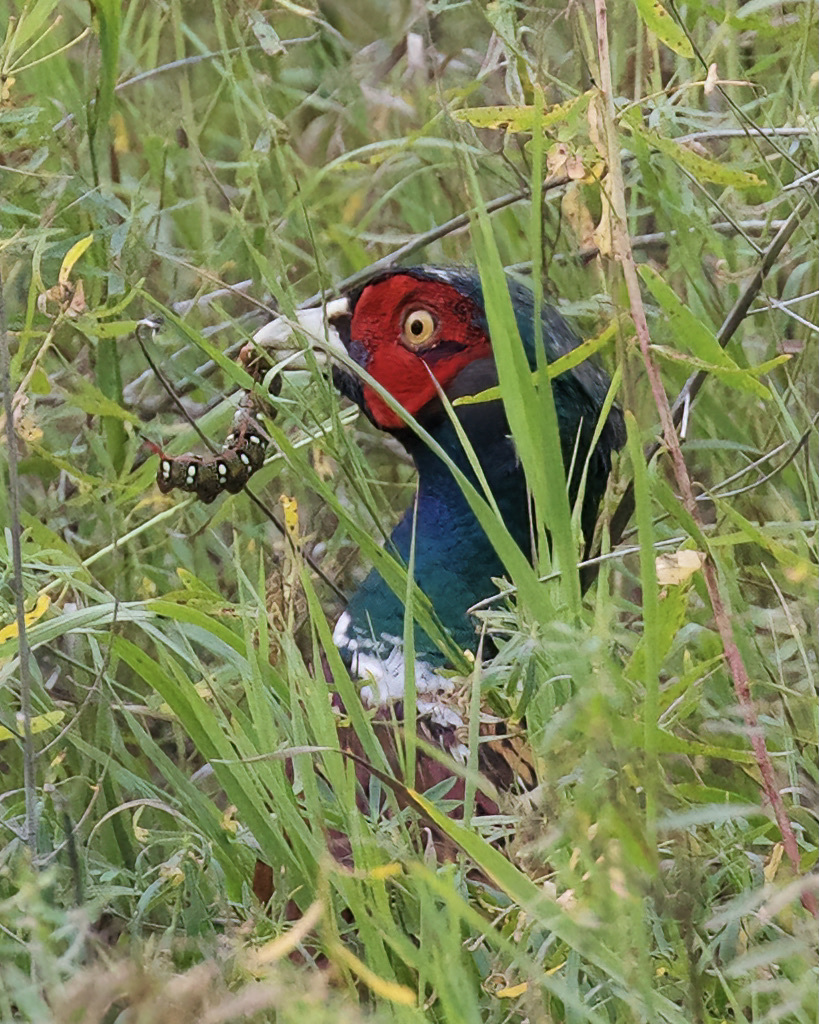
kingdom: Animalia
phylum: Arthropoda
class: Insecta
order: Lepidoptera
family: Sphingidae
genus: Hyles
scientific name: Hyles euphorbiae
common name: Spurge hawk-moth
